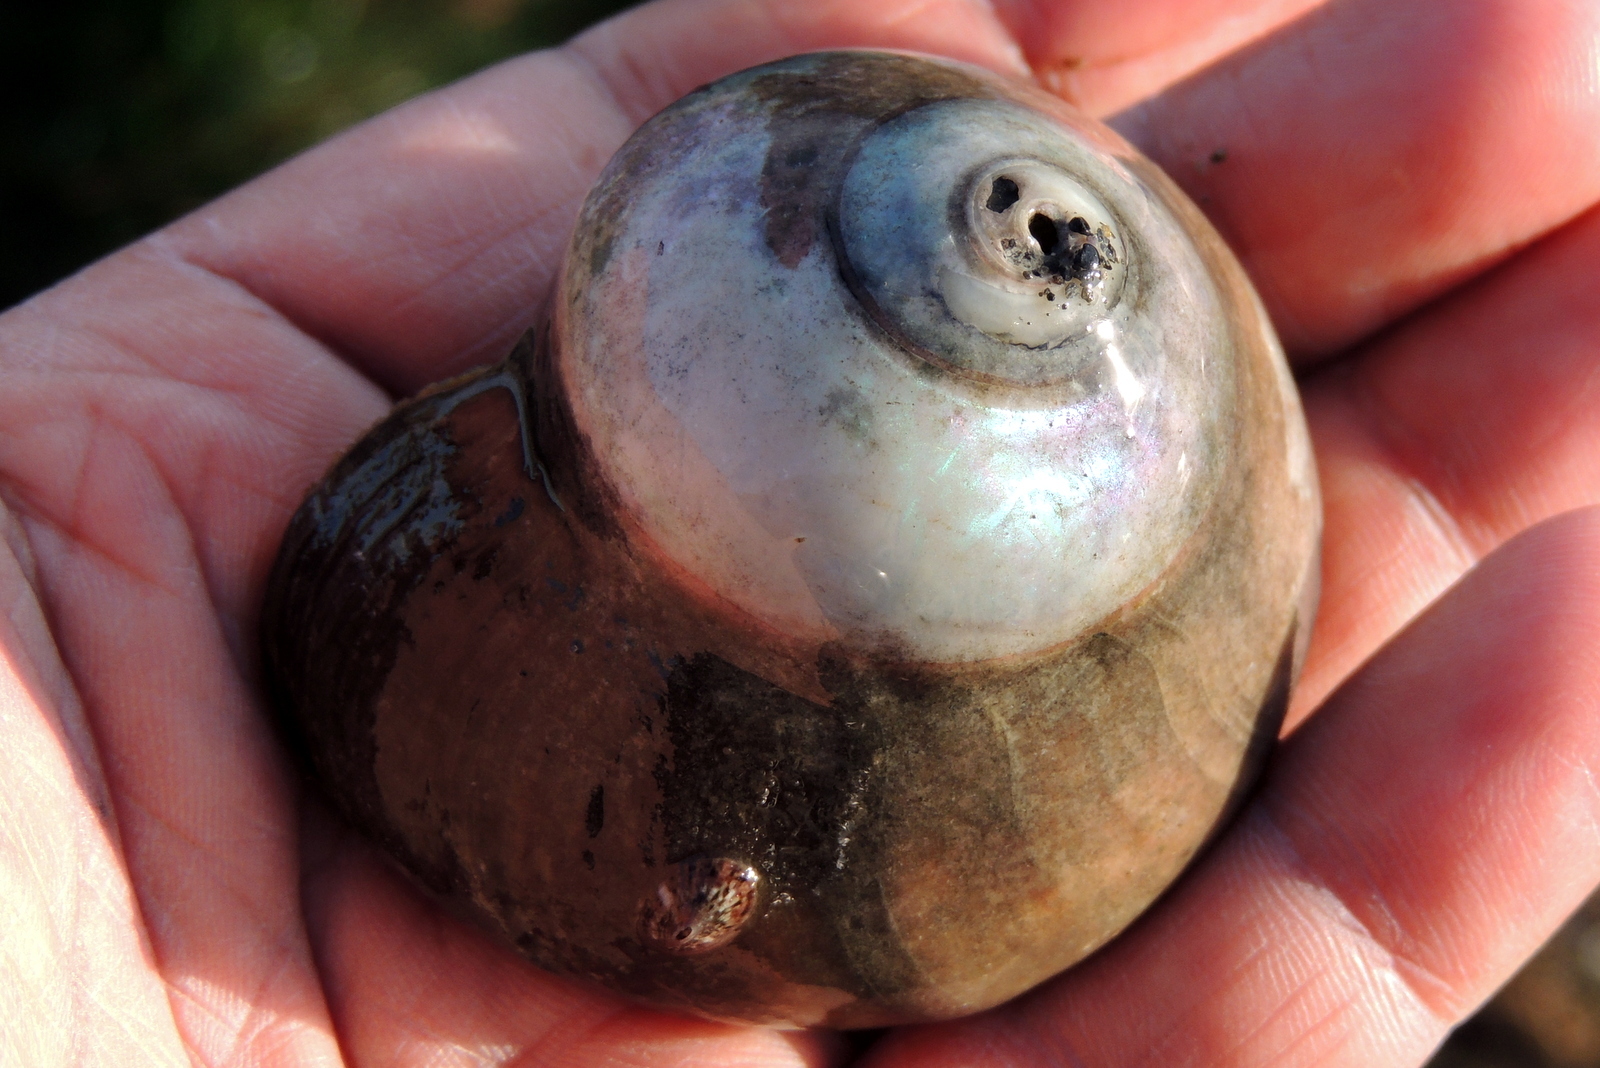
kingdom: Animalia
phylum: Mollusca
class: Gastropoda
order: Trochida
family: Tegulidae
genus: Norrisia
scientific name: Norrisia norrisii
